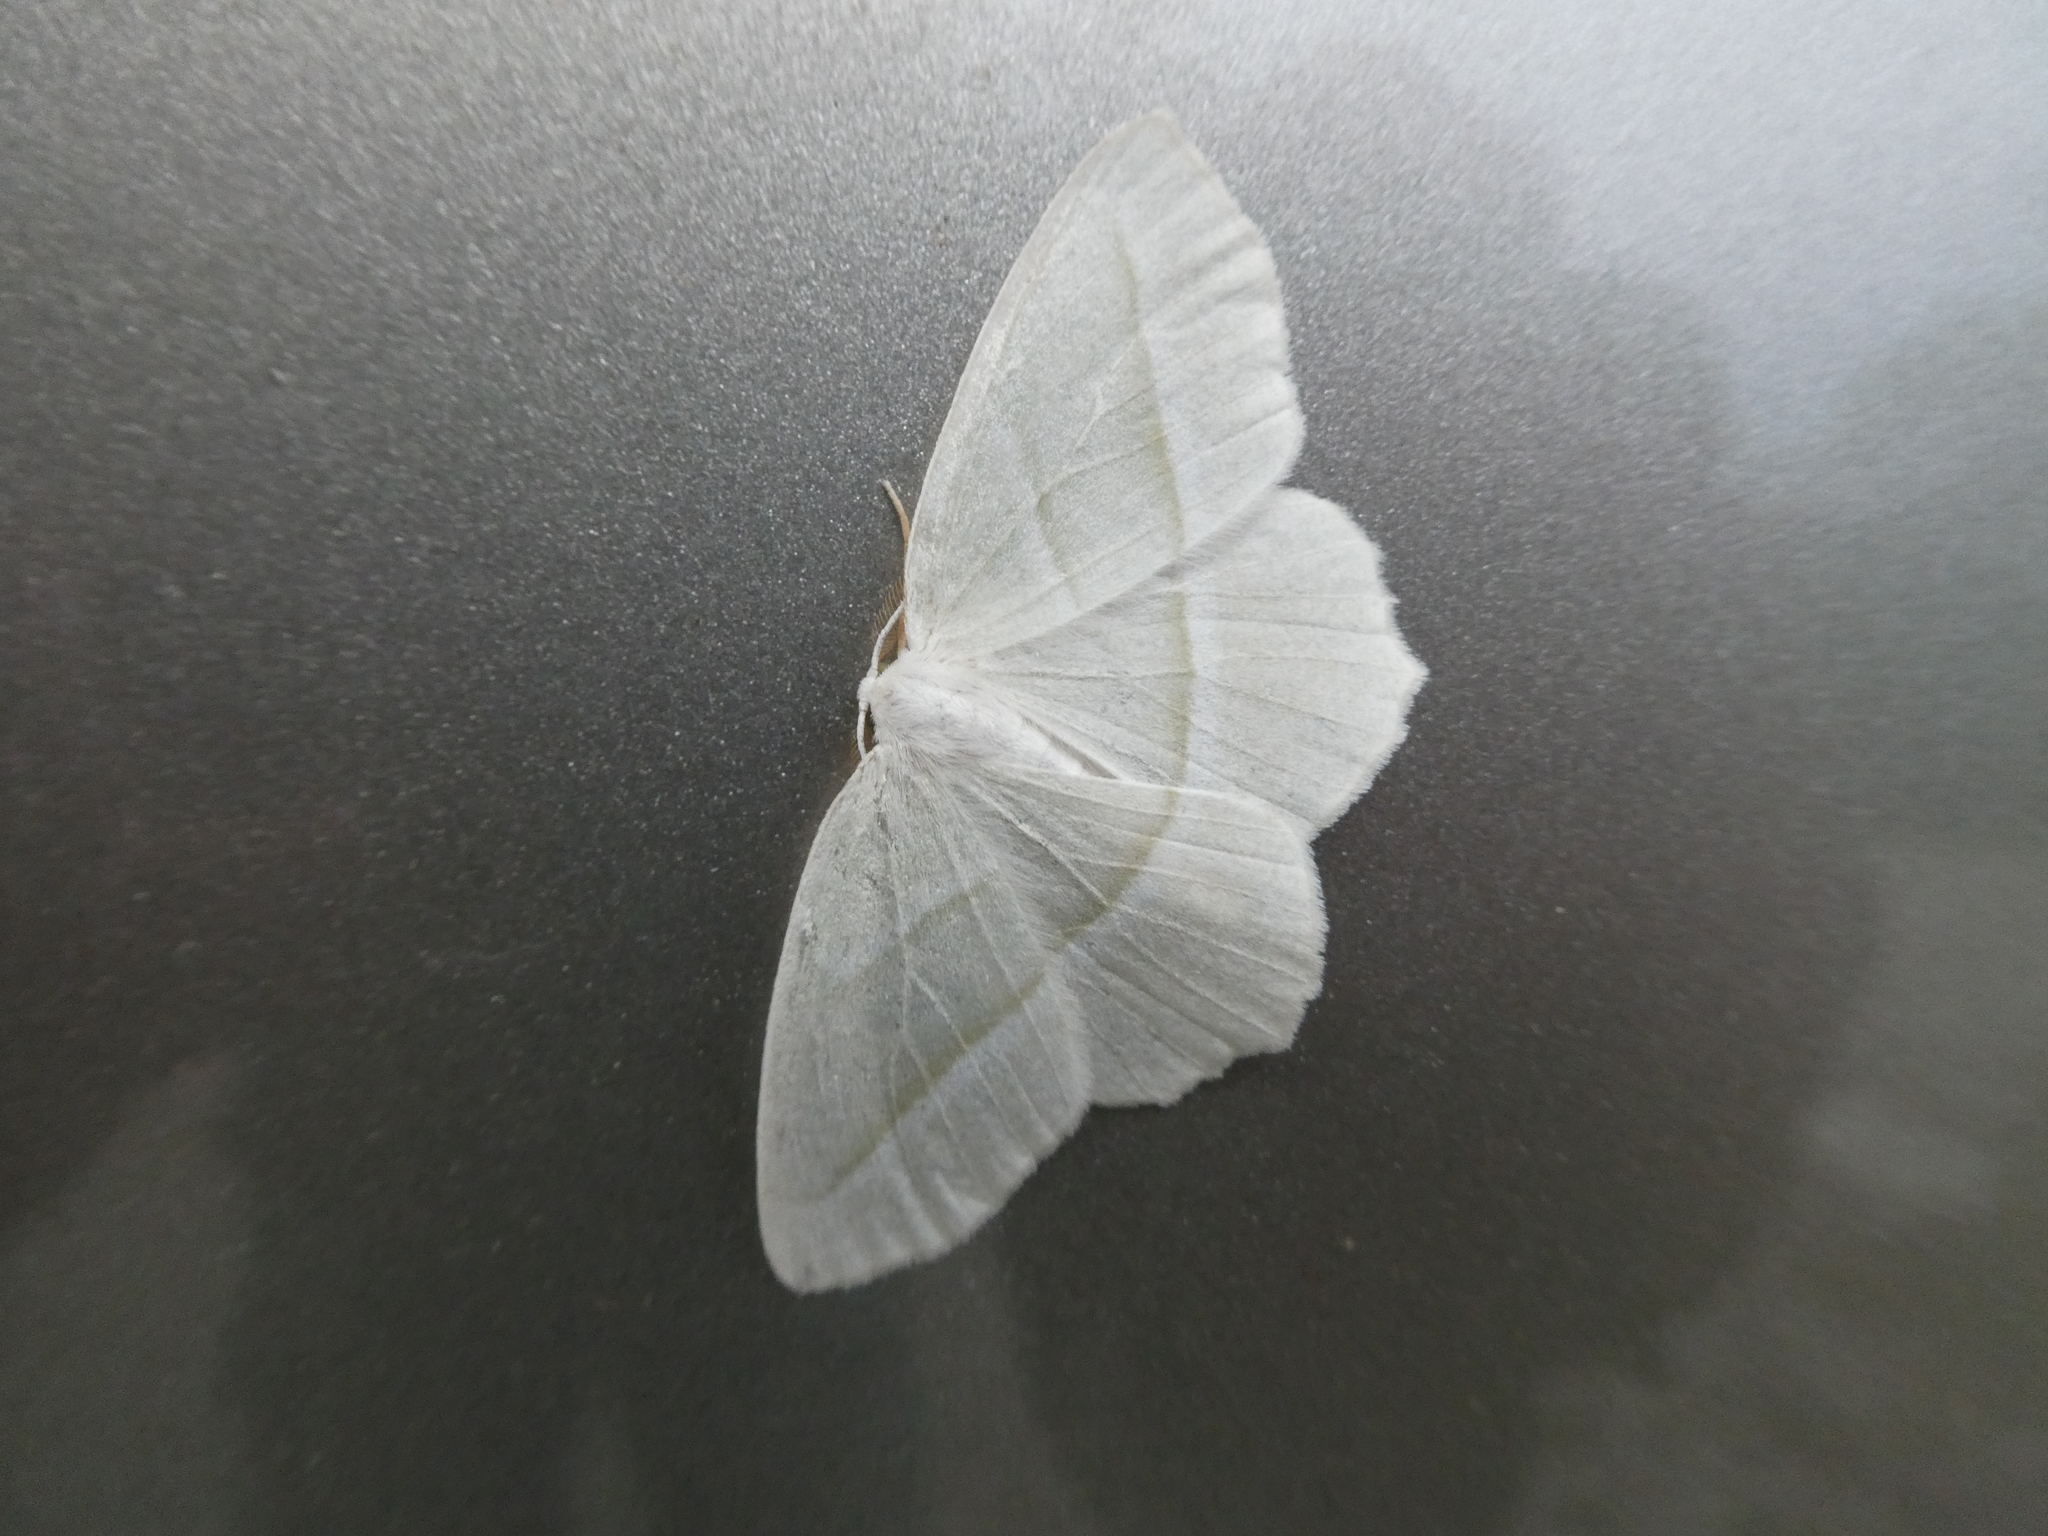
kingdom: Animalia
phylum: Arthropoda
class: Insecta
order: Lepidoptera
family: Geometridae
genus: Campaea
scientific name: Campaea perlata
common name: Fringed looper
